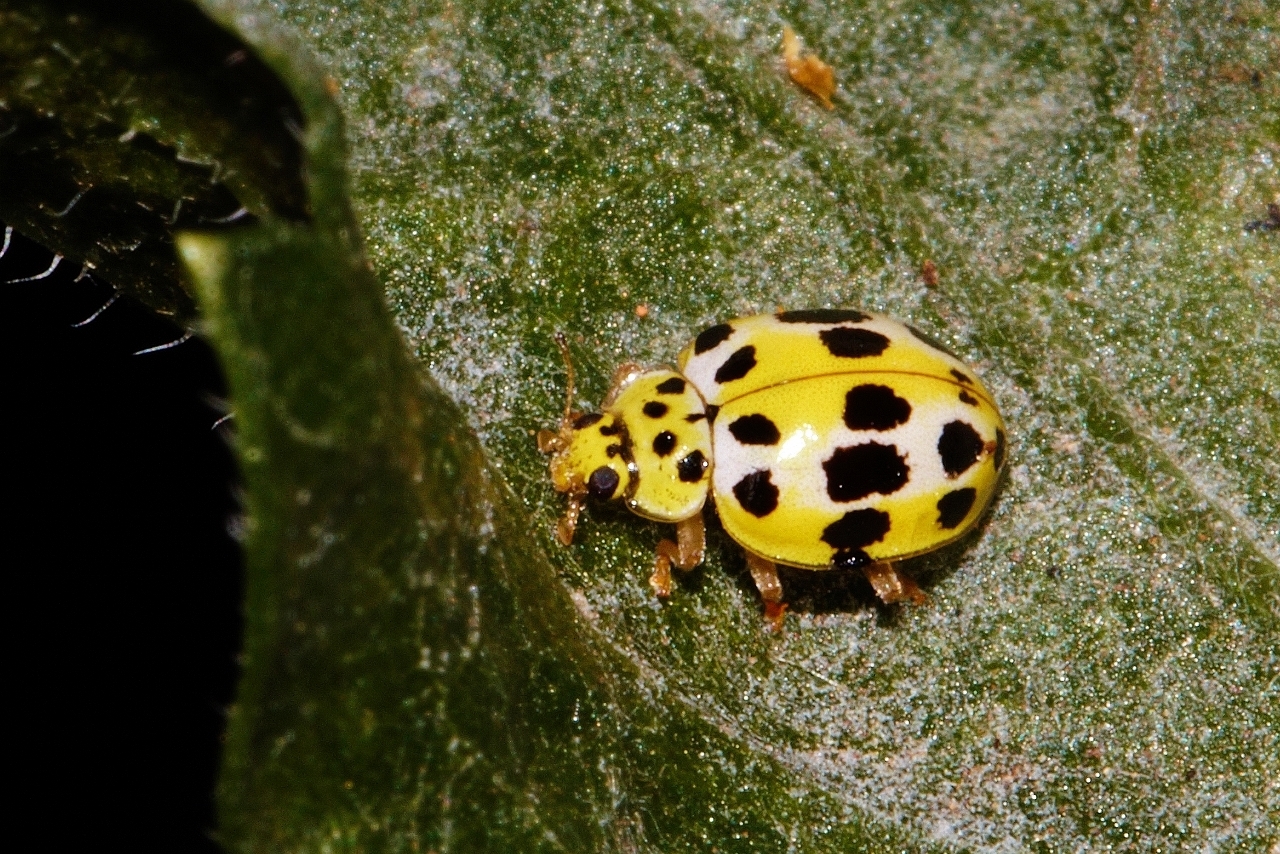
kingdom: Animalia
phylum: Arthropoda
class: Insecta
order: Coleoptera
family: Coccinellidae
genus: Psyllobora
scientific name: Psyllobora variegata
